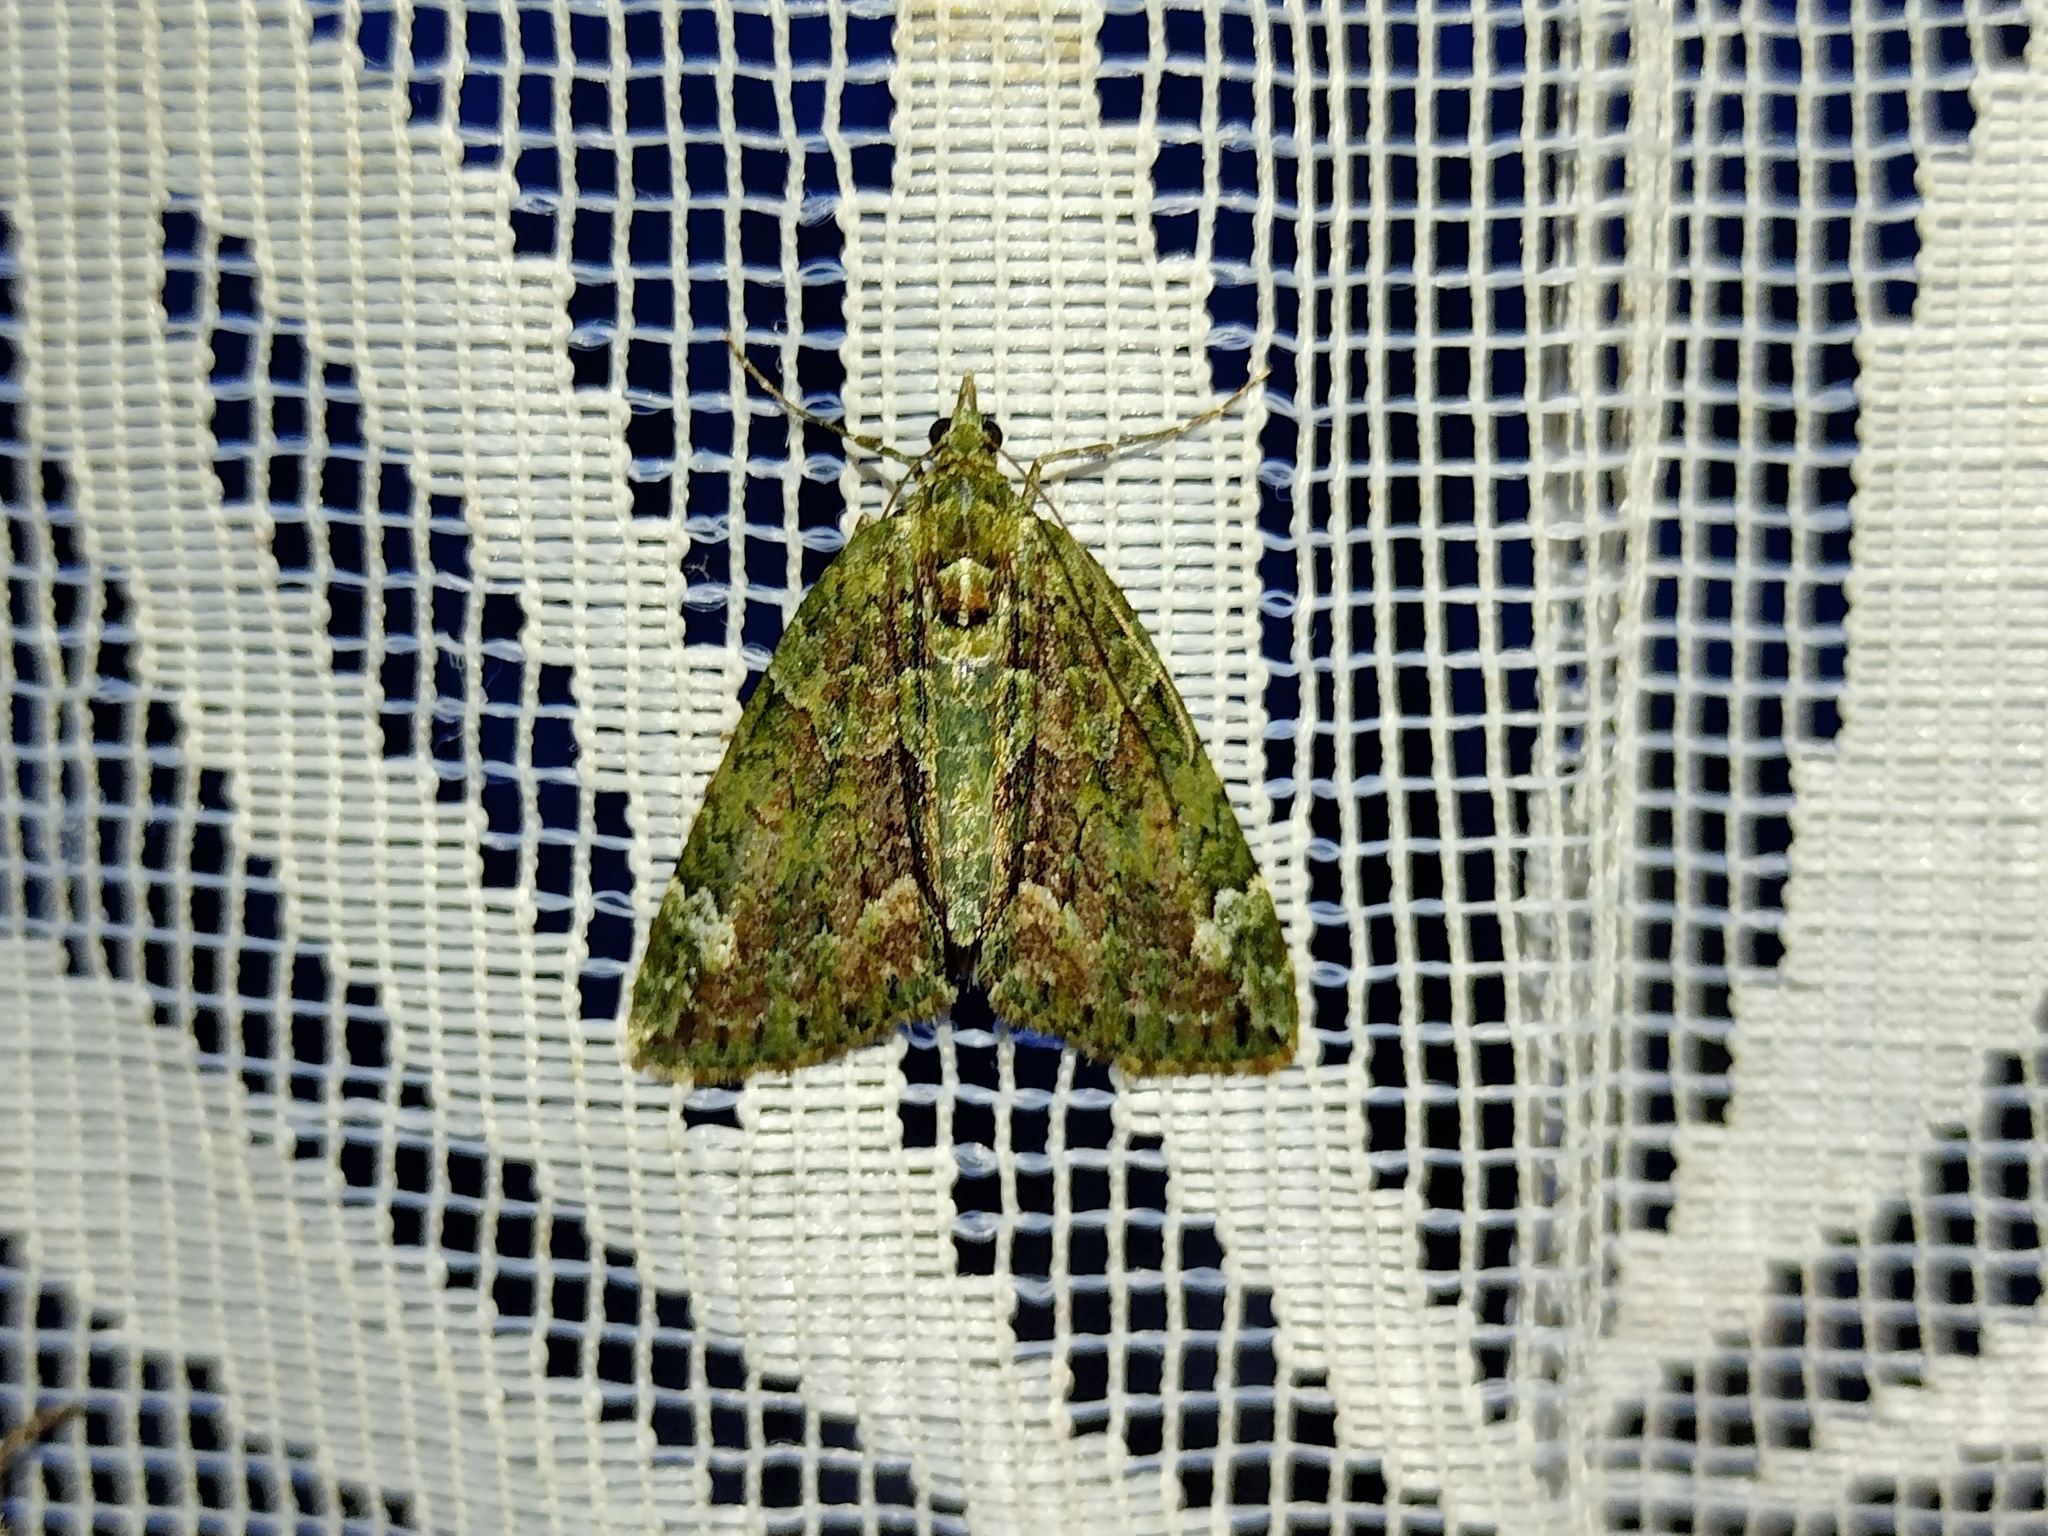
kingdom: Animalia
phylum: Arthropoda
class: Insecta
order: Lepidoptera
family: Geometridae
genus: Chloroclysta
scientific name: Chloroclysta siterata
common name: Red-green carpet
